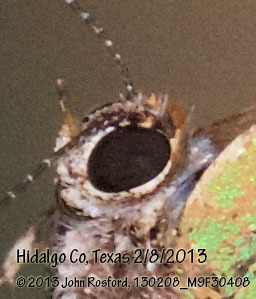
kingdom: Animalia
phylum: Arthropoda
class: Insecta
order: Lepidoptera
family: Lycaenidae
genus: Cyanophrys
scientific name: Cyanophrys miserabilis
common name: Clench's greenstreak
